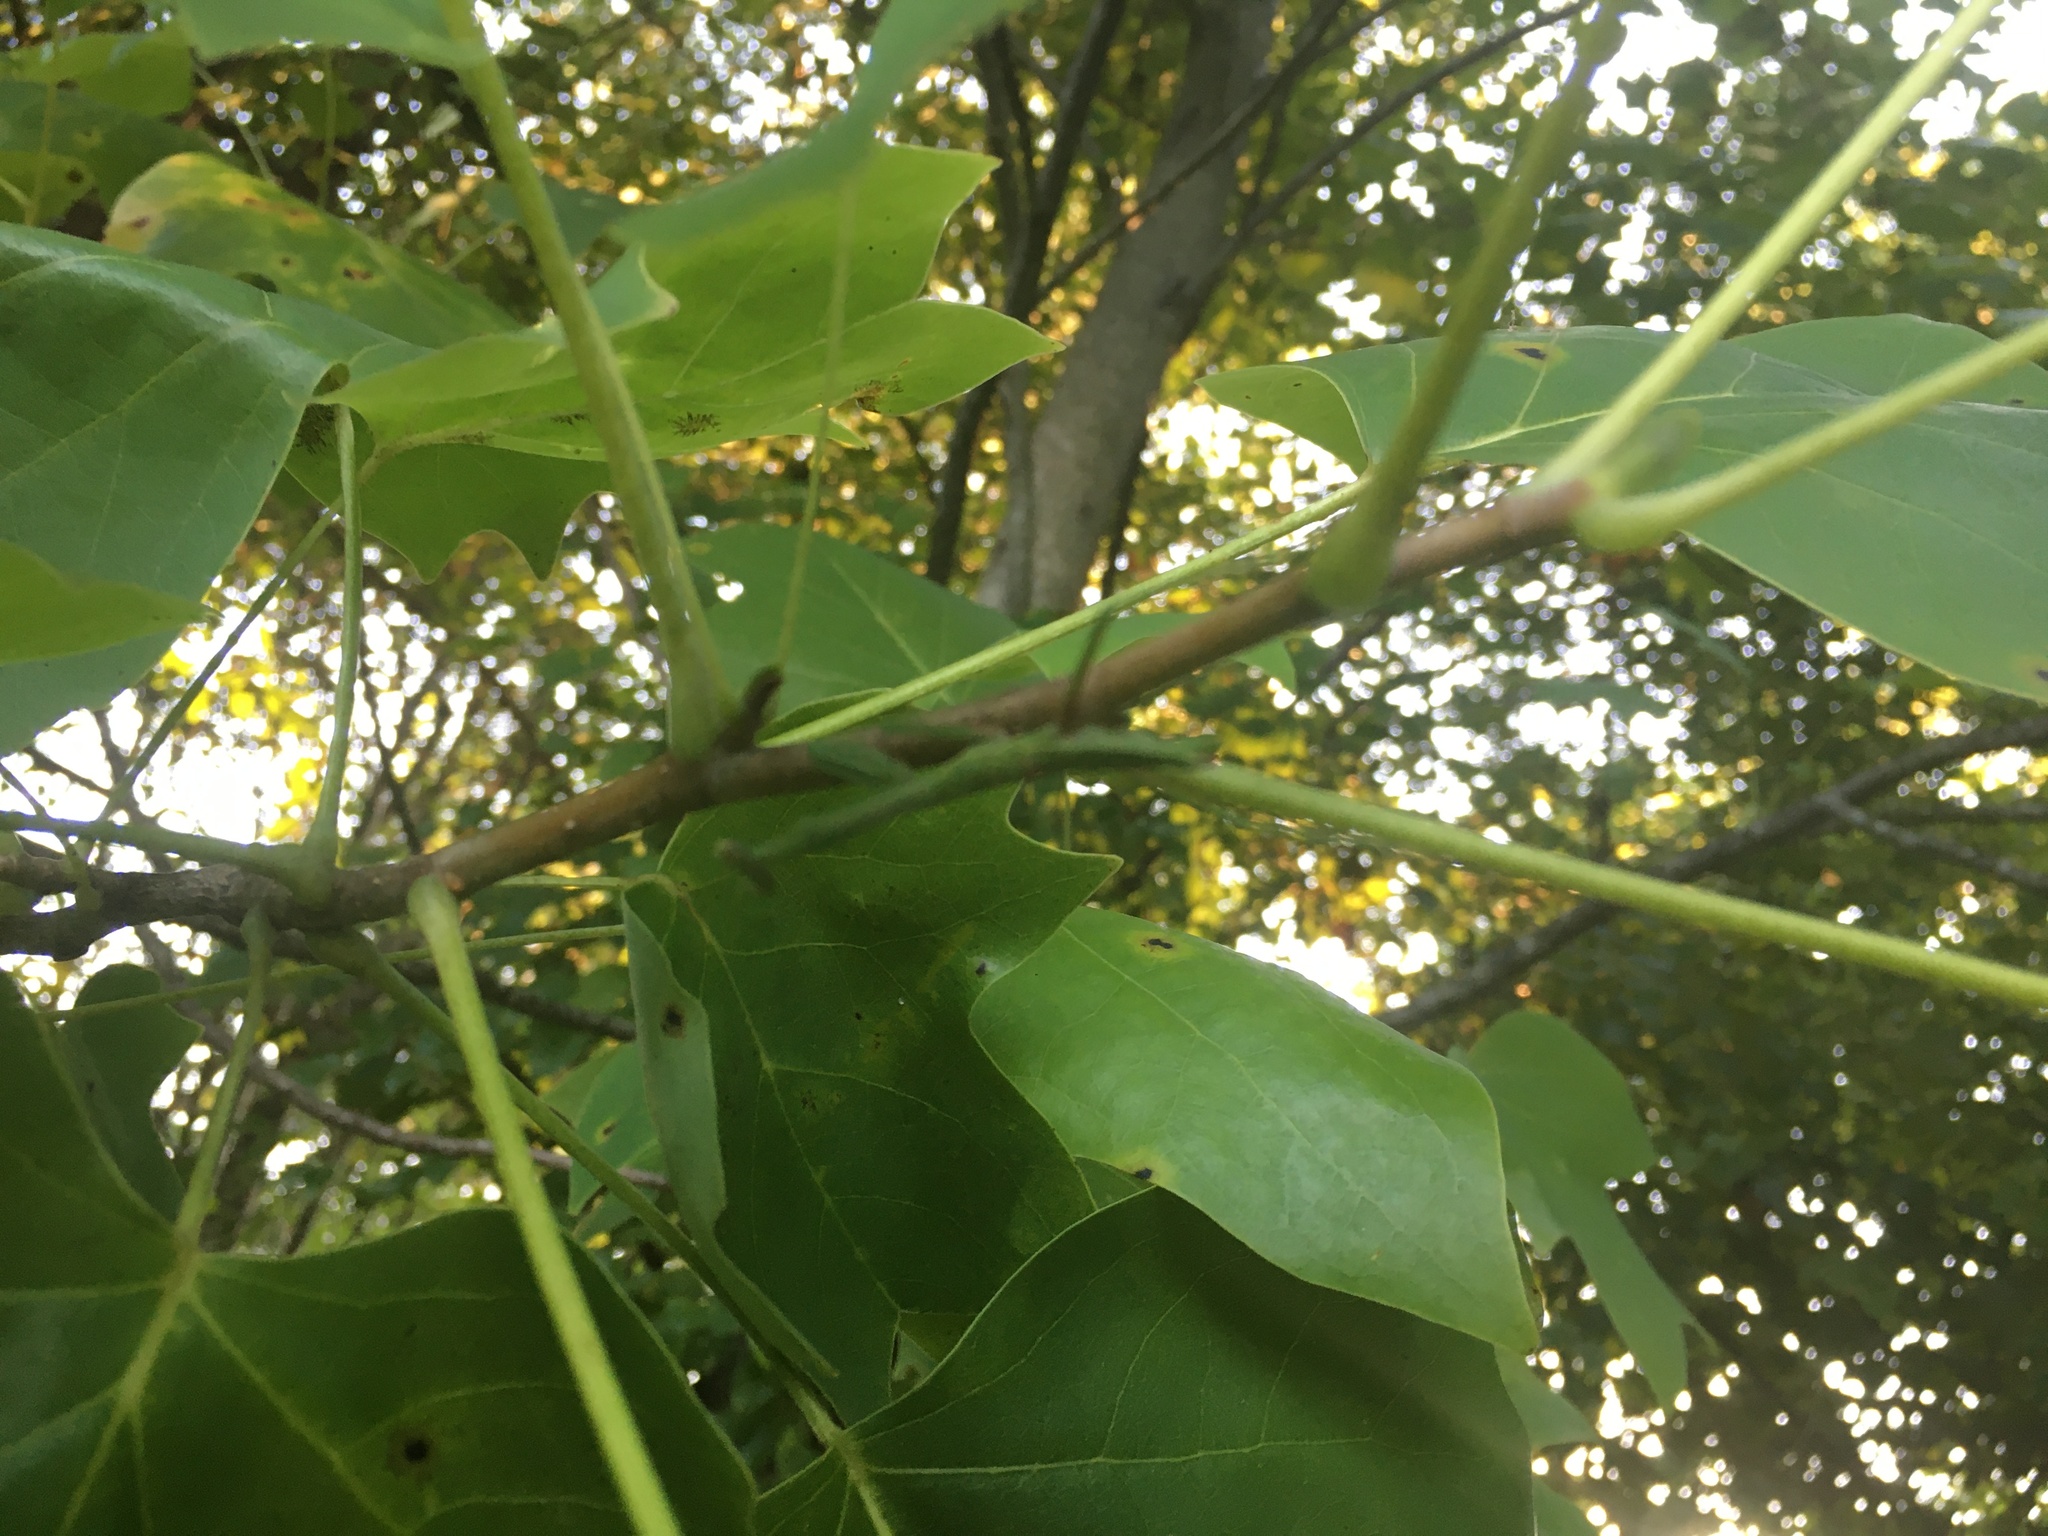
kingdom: Animalia
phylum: Arthropoda
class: Insecta
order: Mantodea
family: Mantidae
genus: Stagmomantis
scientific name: Stagmomantis carolina
